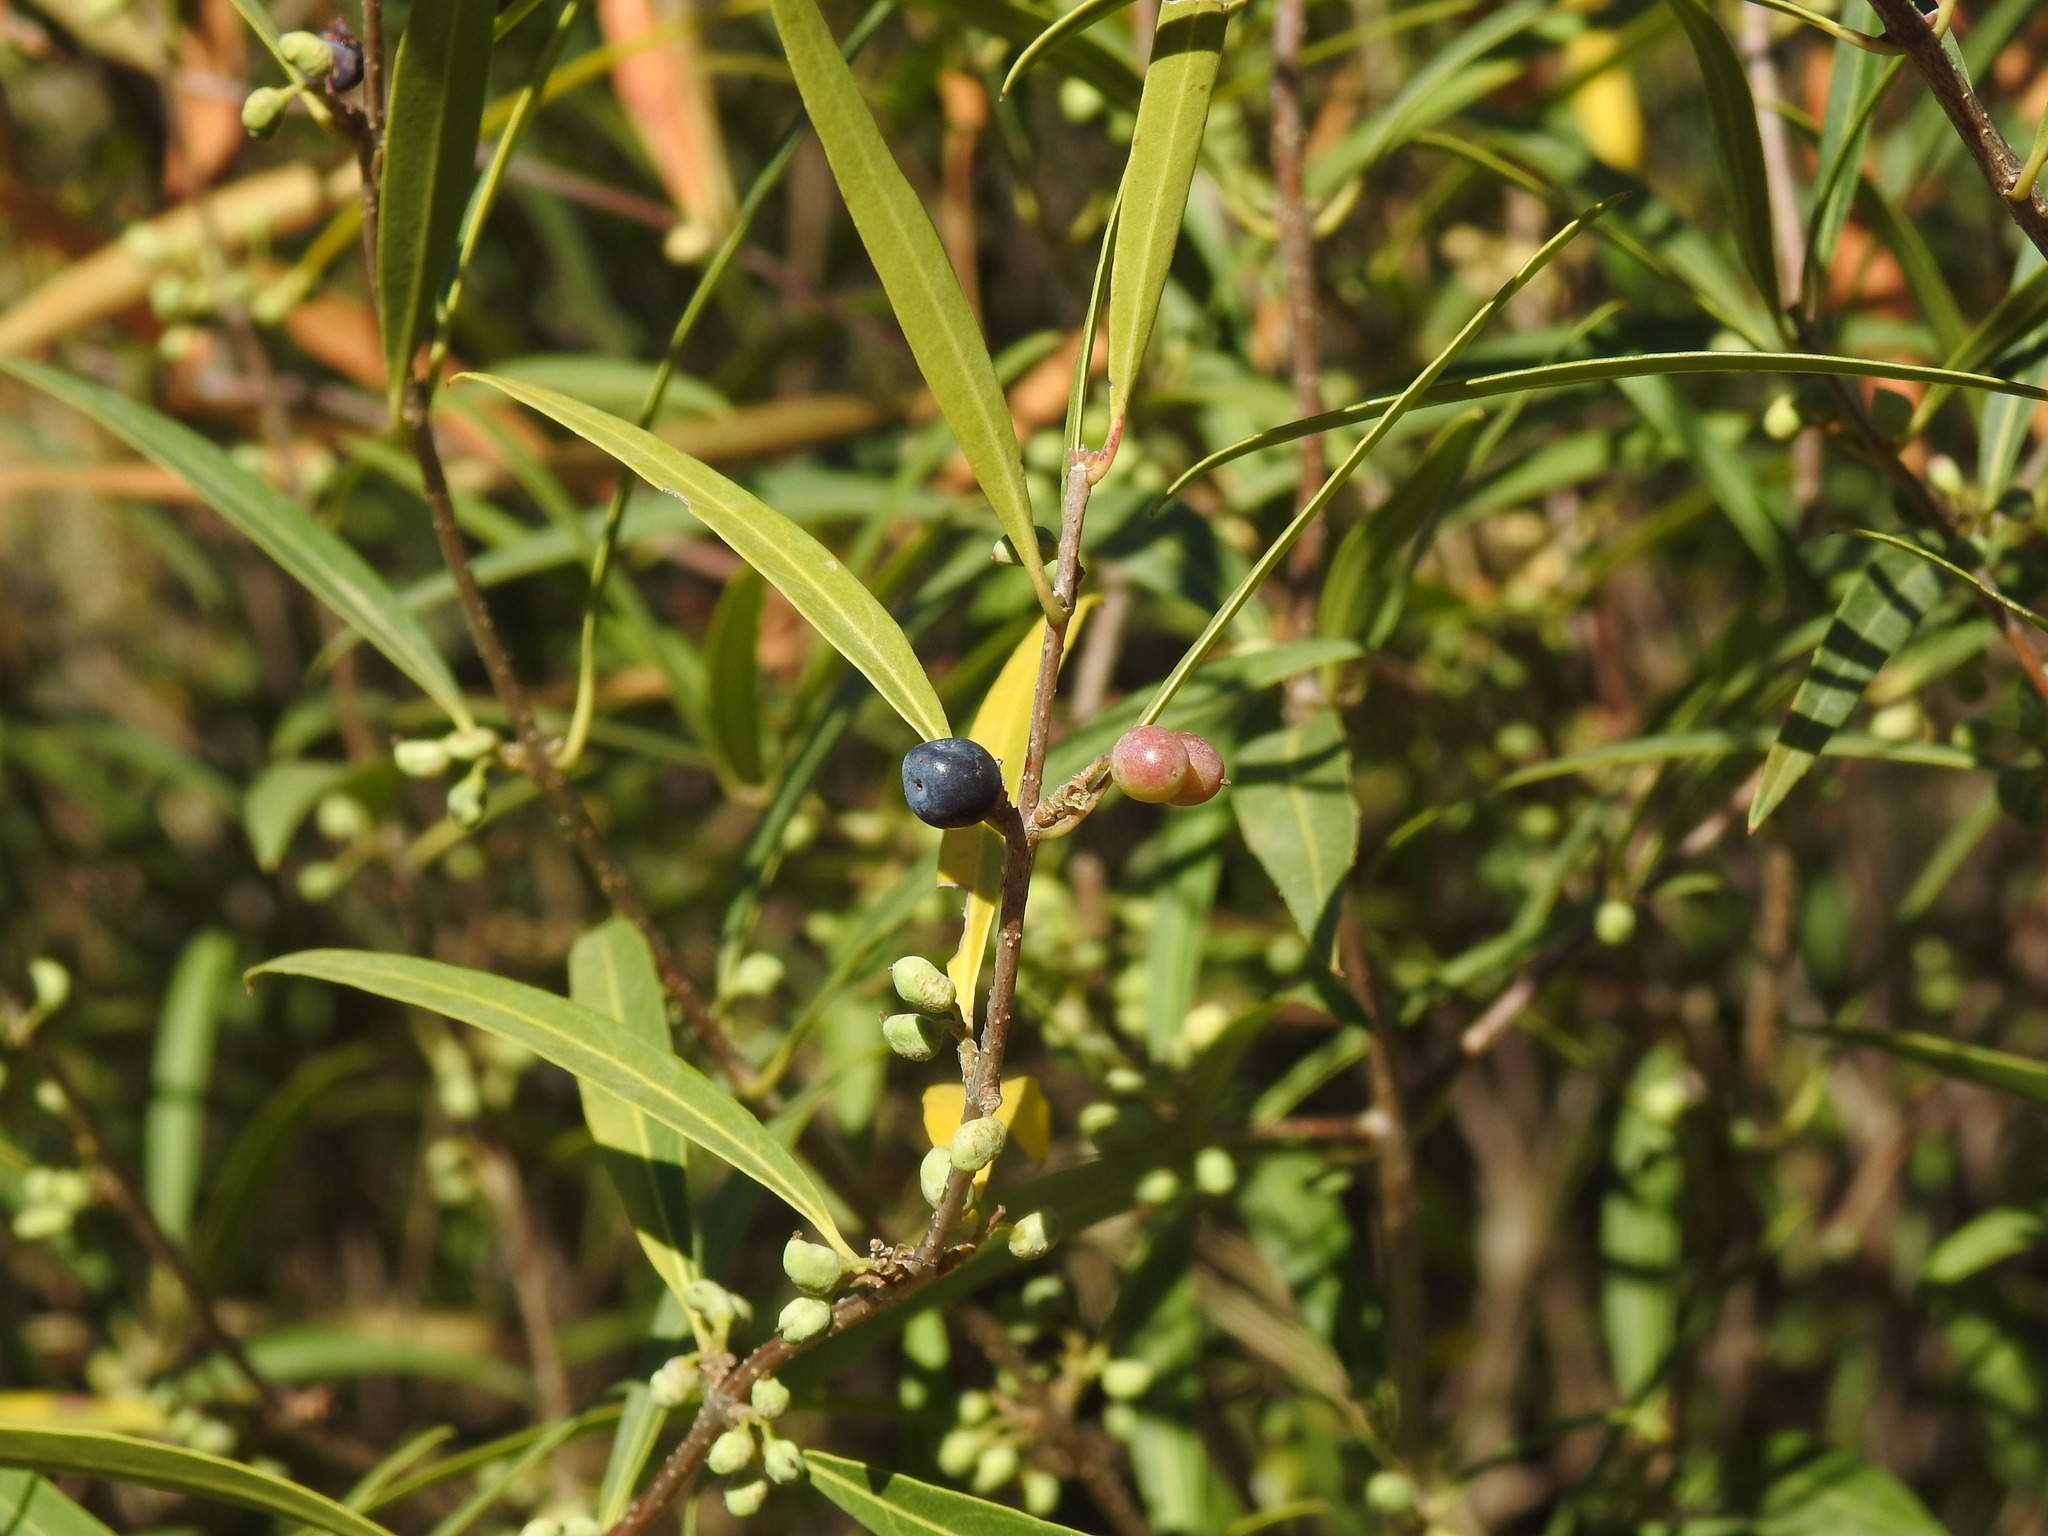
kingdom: Plantae
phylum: Tracheophyta
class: Magnoliopsida
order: Lamiales
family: Oleaceae
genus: Phillyrea
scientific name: Phillyrea angustifolia
